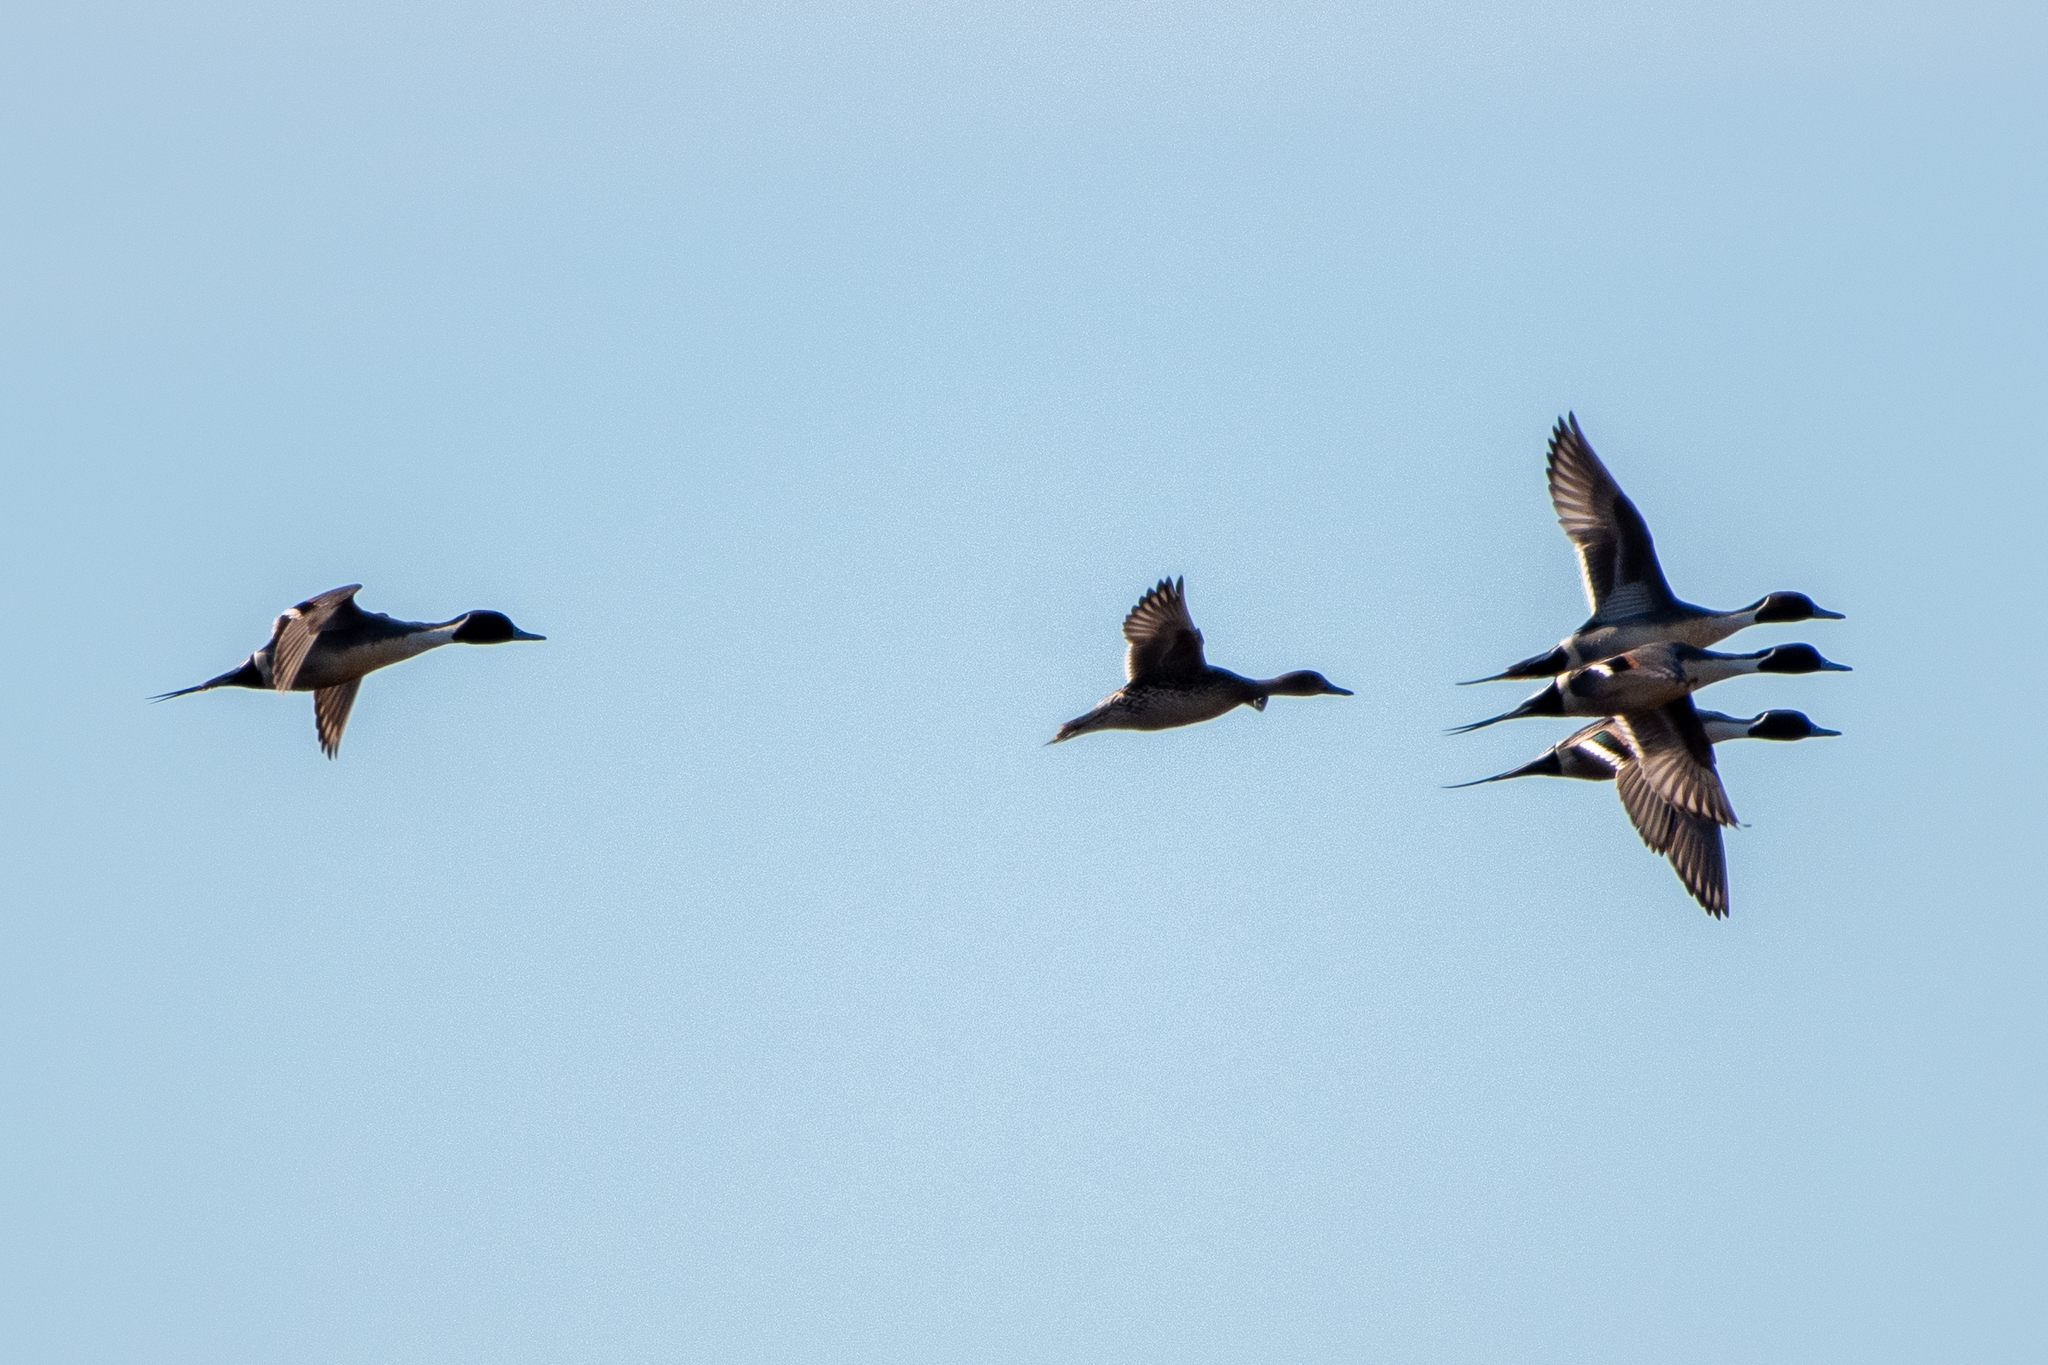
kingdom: Animalia
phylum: Chordata
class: Aves
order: Anseriformes
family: Anatidae
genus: Anas
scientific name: Anas acuta
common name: Northern pintail
